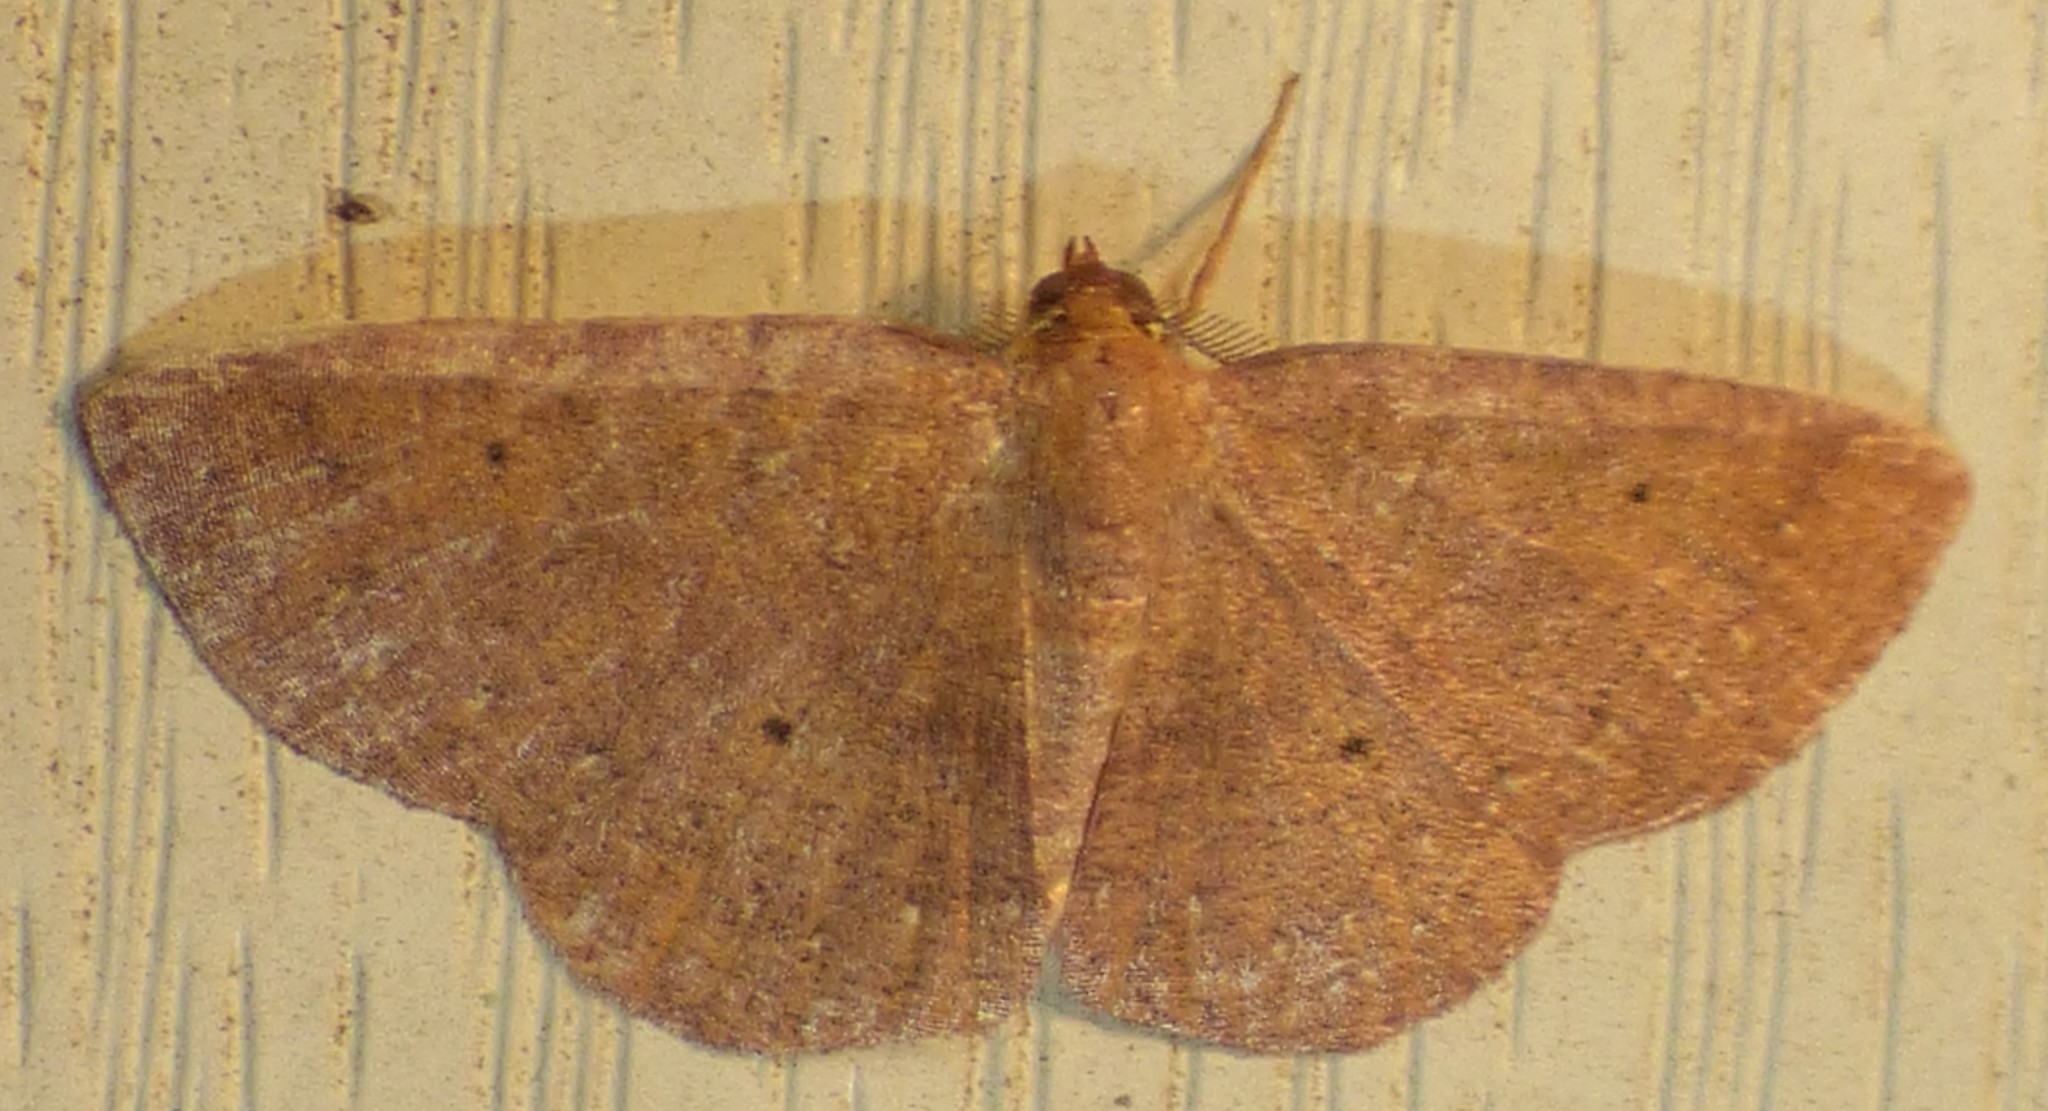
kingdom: Animalia
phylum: Arthropoda
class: Insecta
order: Lepidoptera
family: Geometridae
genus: Ilexia
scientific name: Ilexia intractata
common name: Black-dotted ruddy moth
